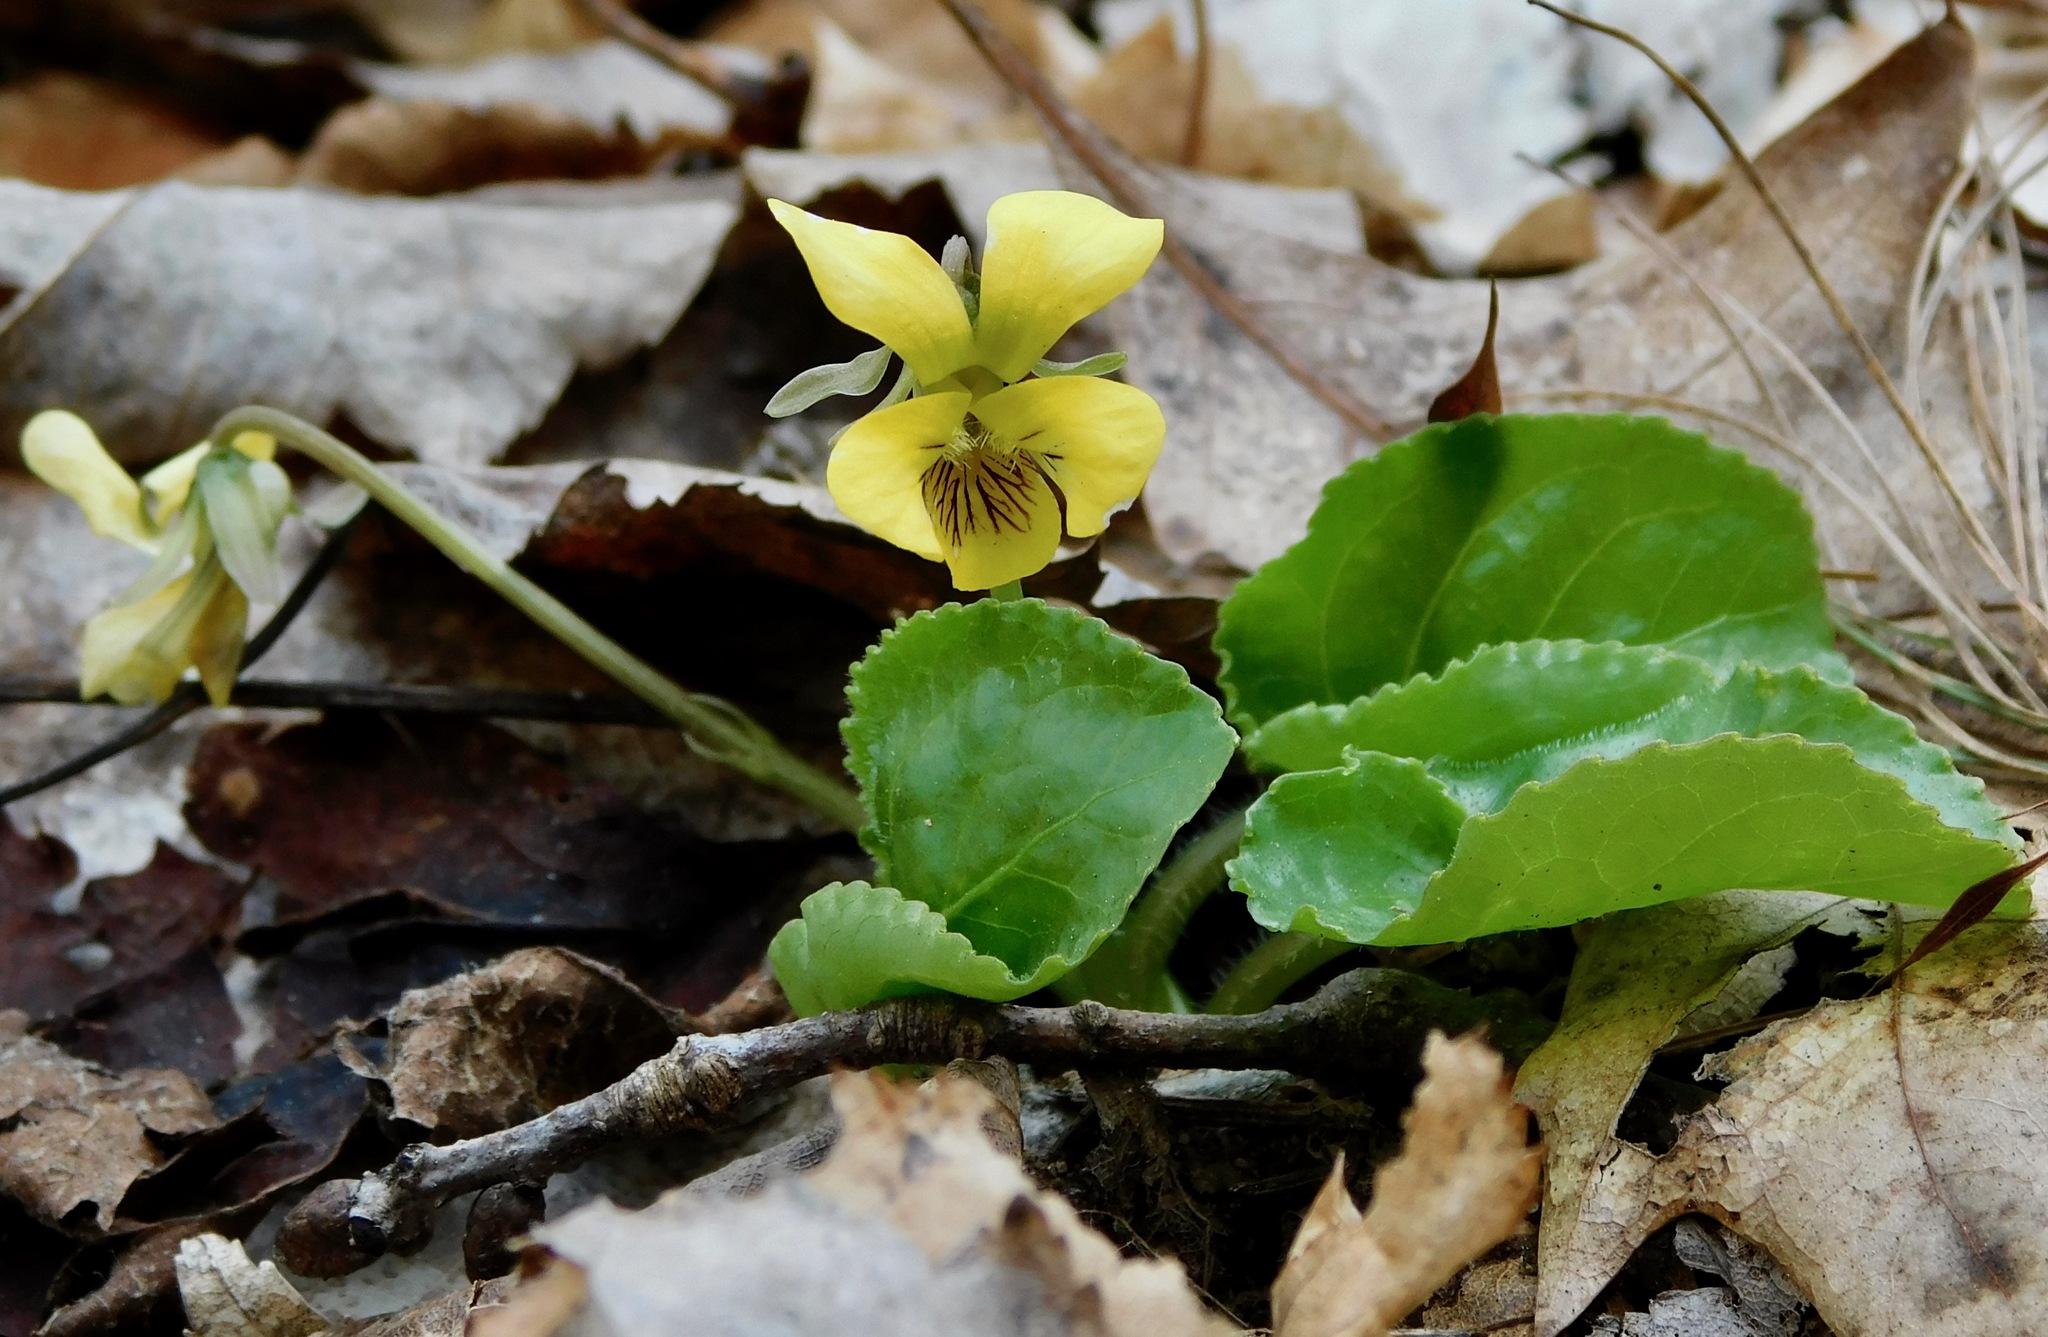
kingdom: Plantae
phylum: Tracheophyta
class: Magnoliopsida
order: Malpighiales
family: Violaceae
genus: Viola
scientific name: Viola rotundifolia
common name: Early yellow violet
